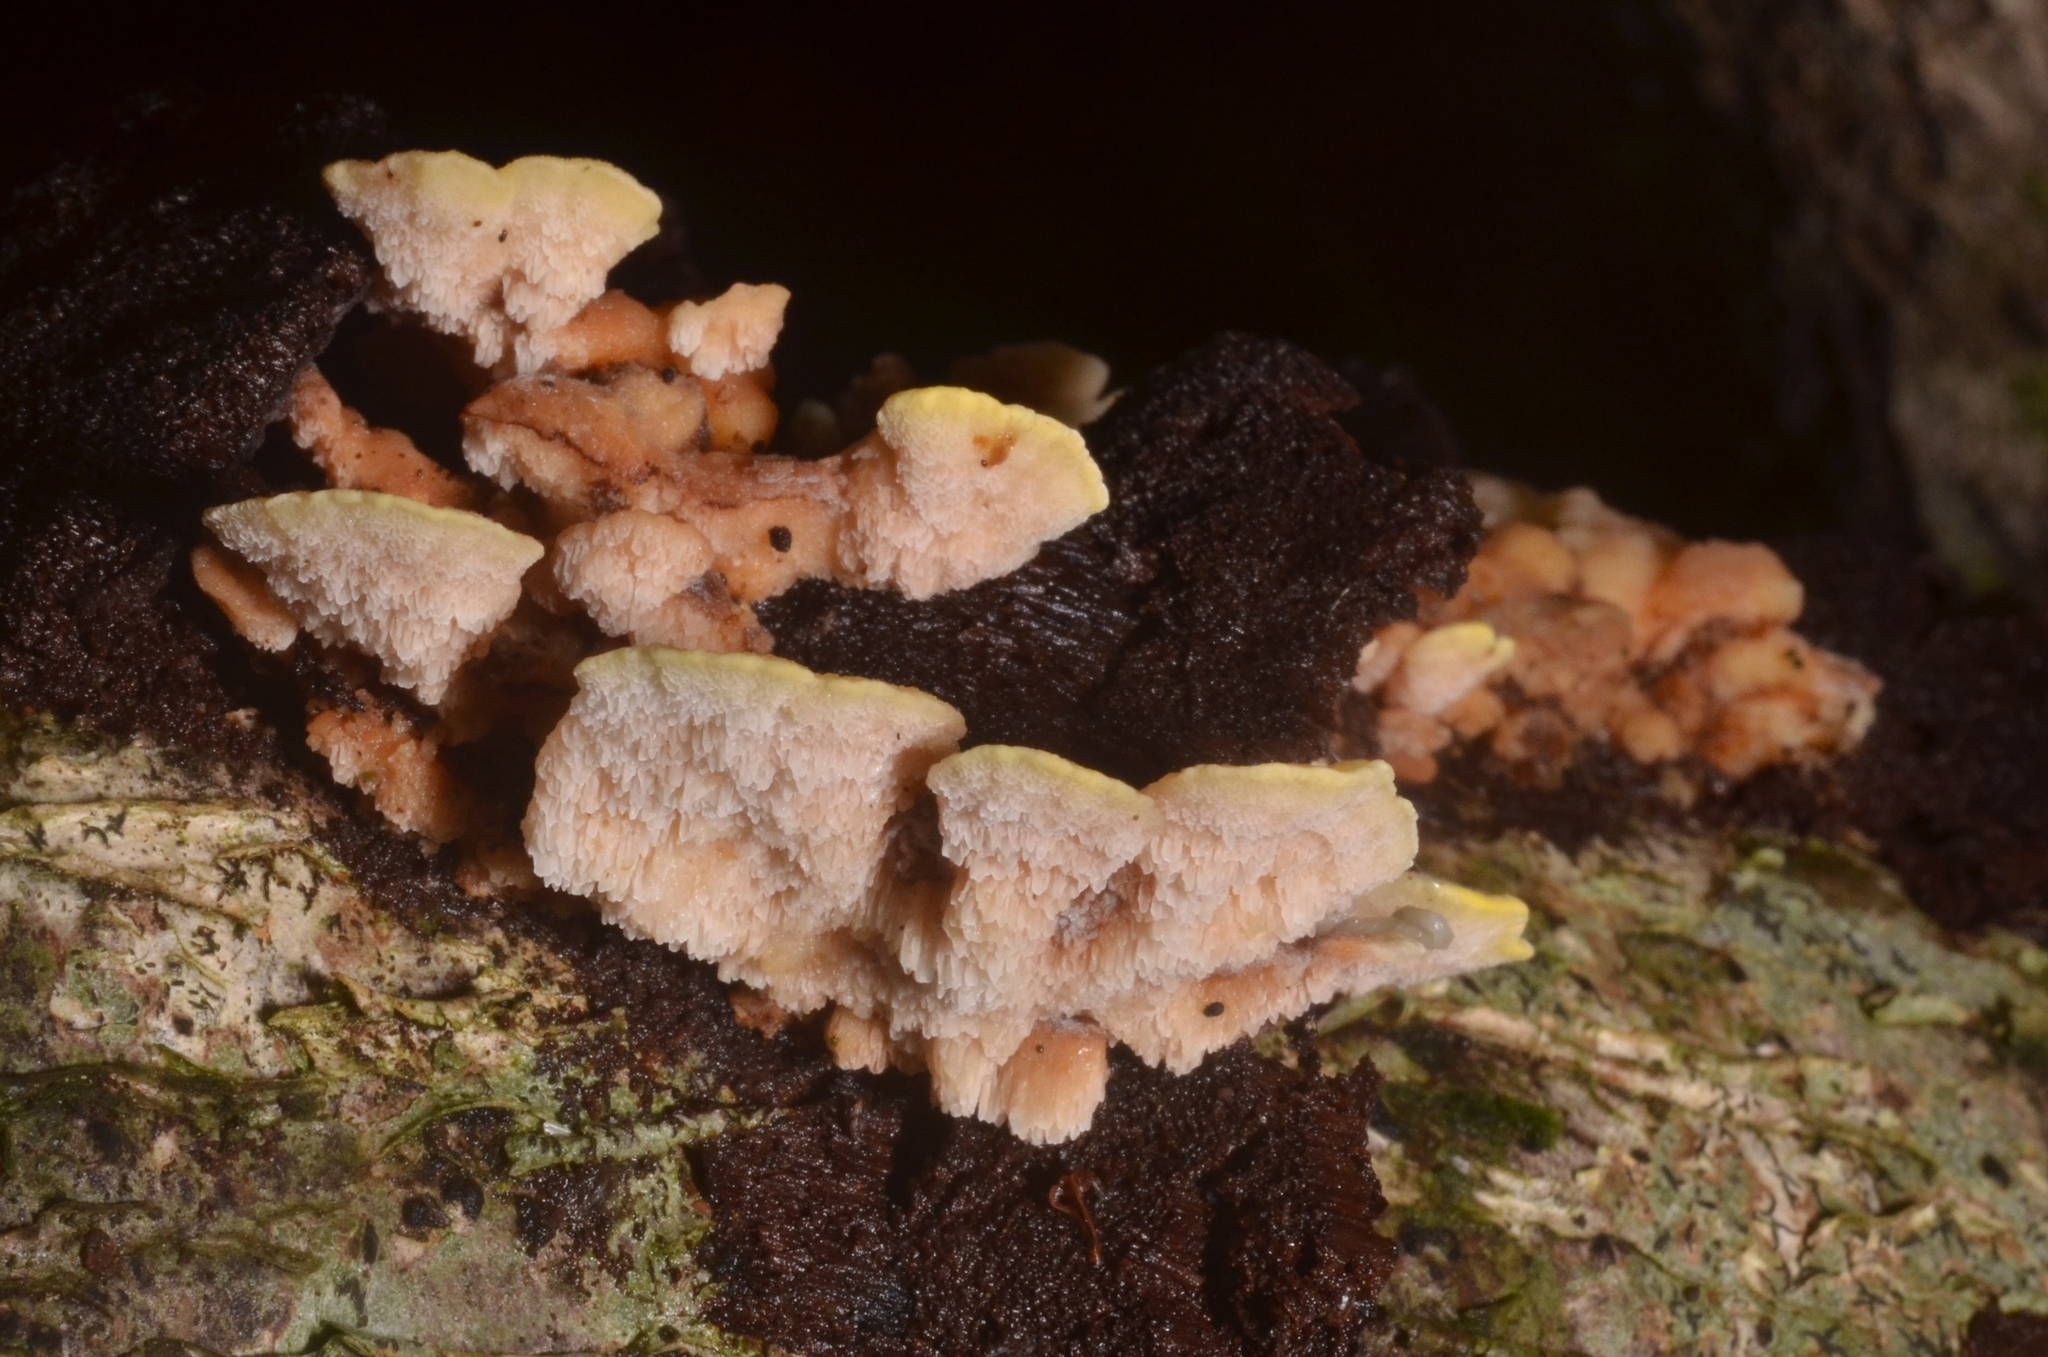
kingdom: Fungi
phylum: Basidiomycota
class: Agaricomycetes
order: Polyporales
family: Steccherinaceae
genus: Antrodiella
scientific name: Antrodiella serpula
